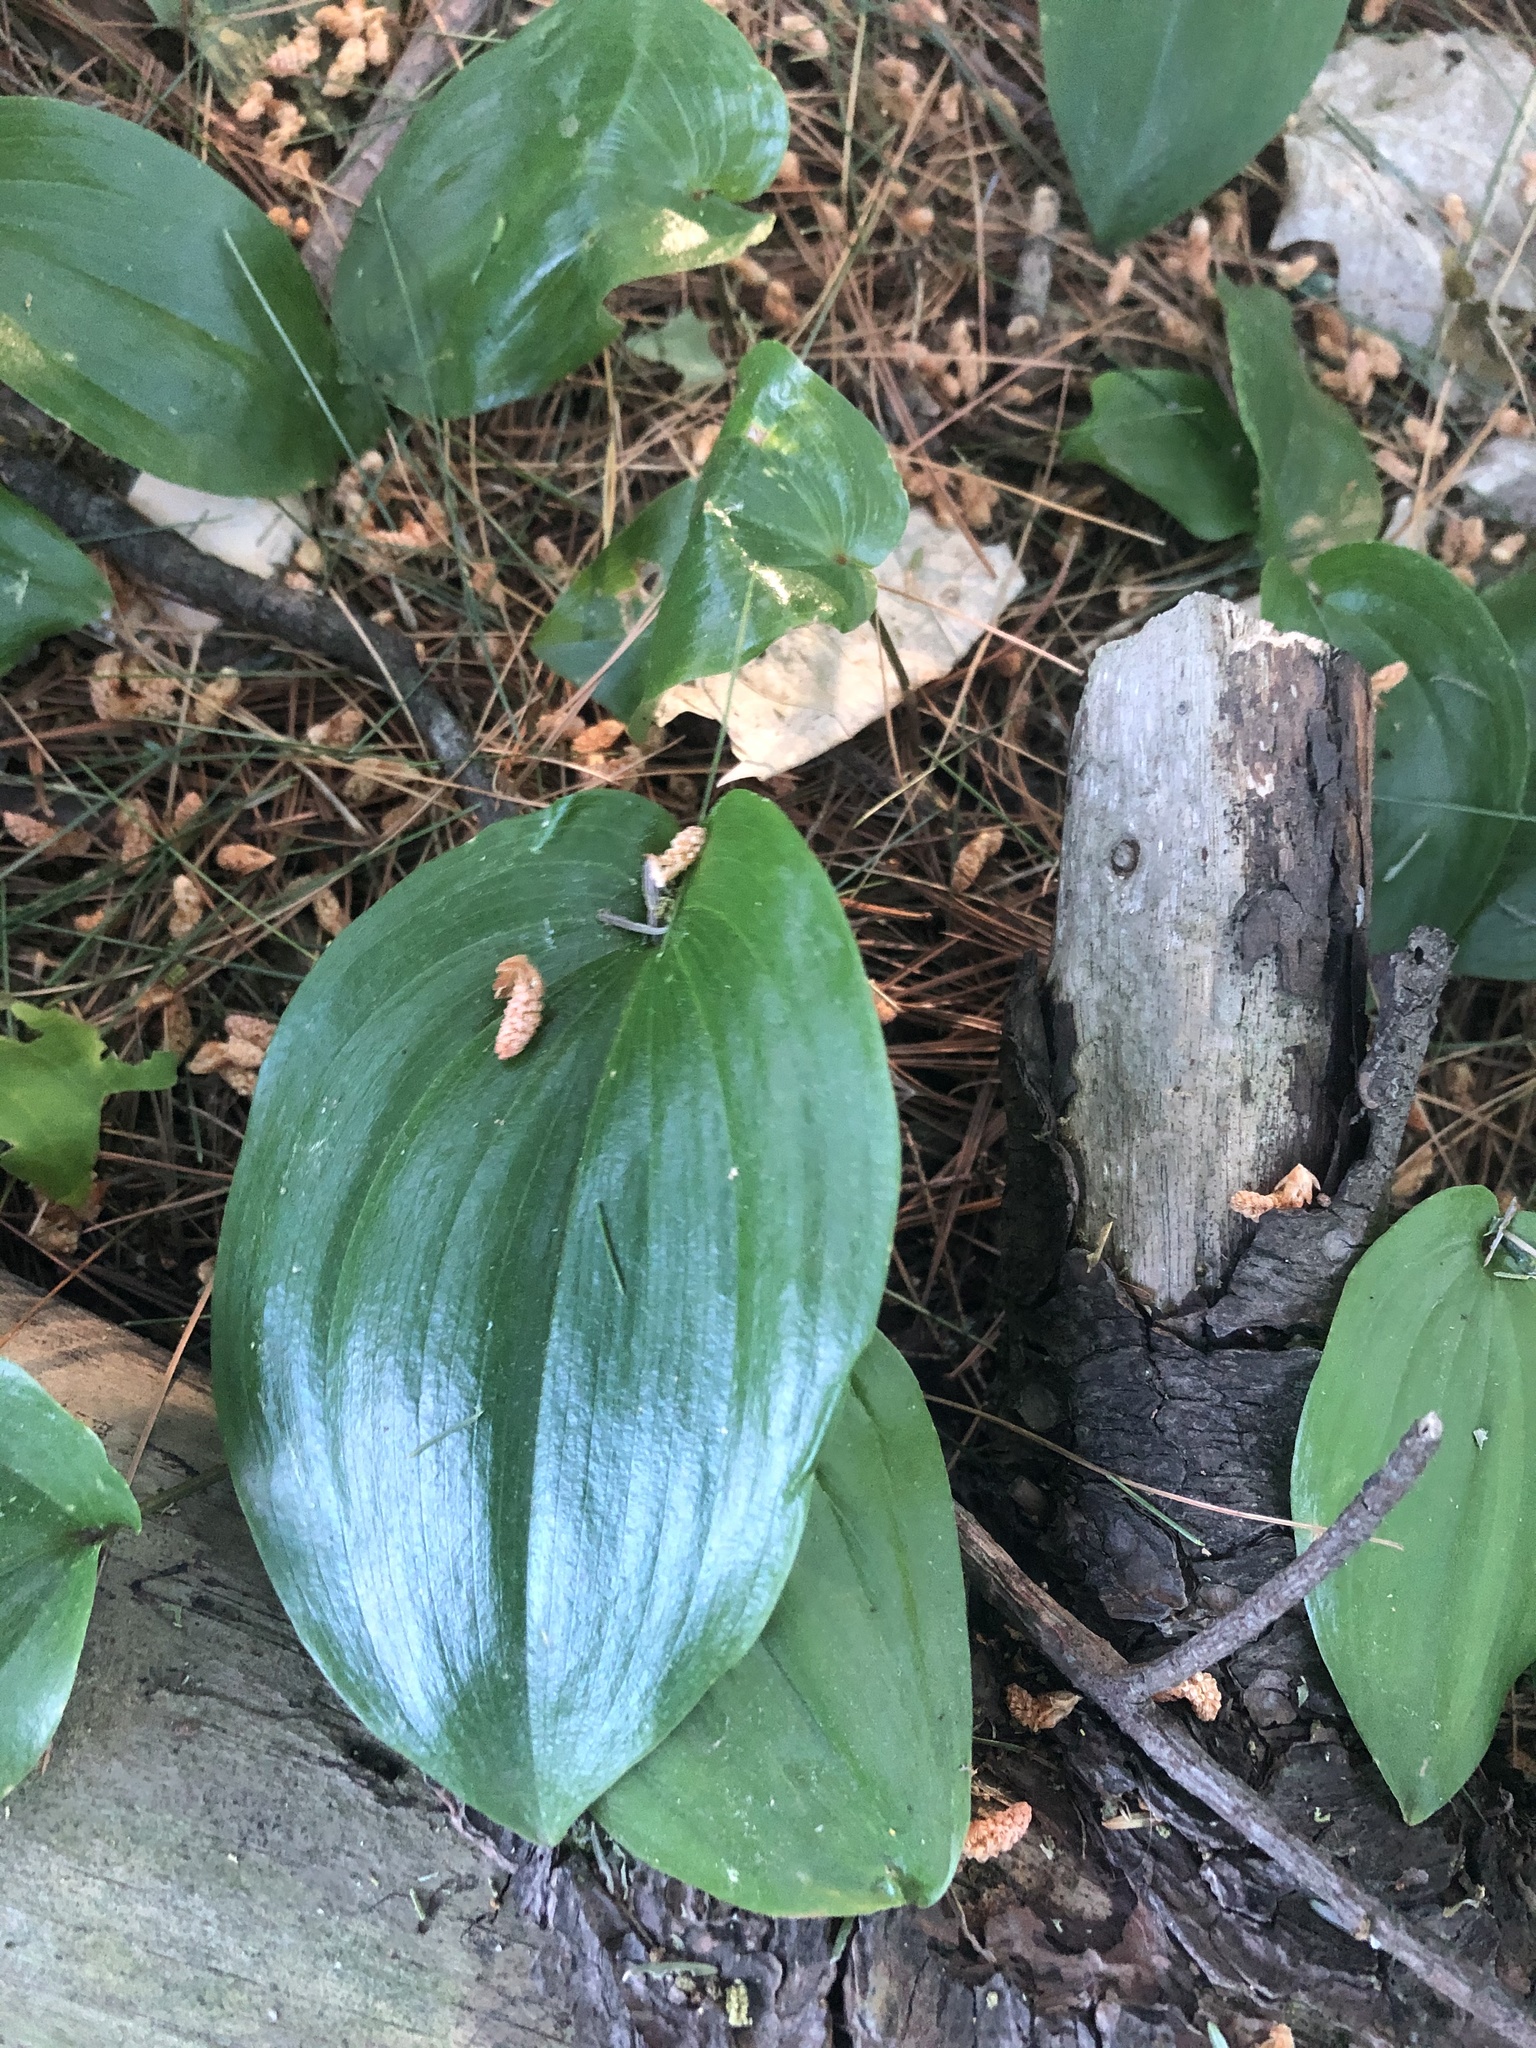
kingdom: Plantae
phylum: Tracheophyta
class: Liliopsida
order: Asparagales
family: Asparagaceae
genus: Maianthemum
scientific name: Maianthemum canadense
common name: False lily-of-the-valley
